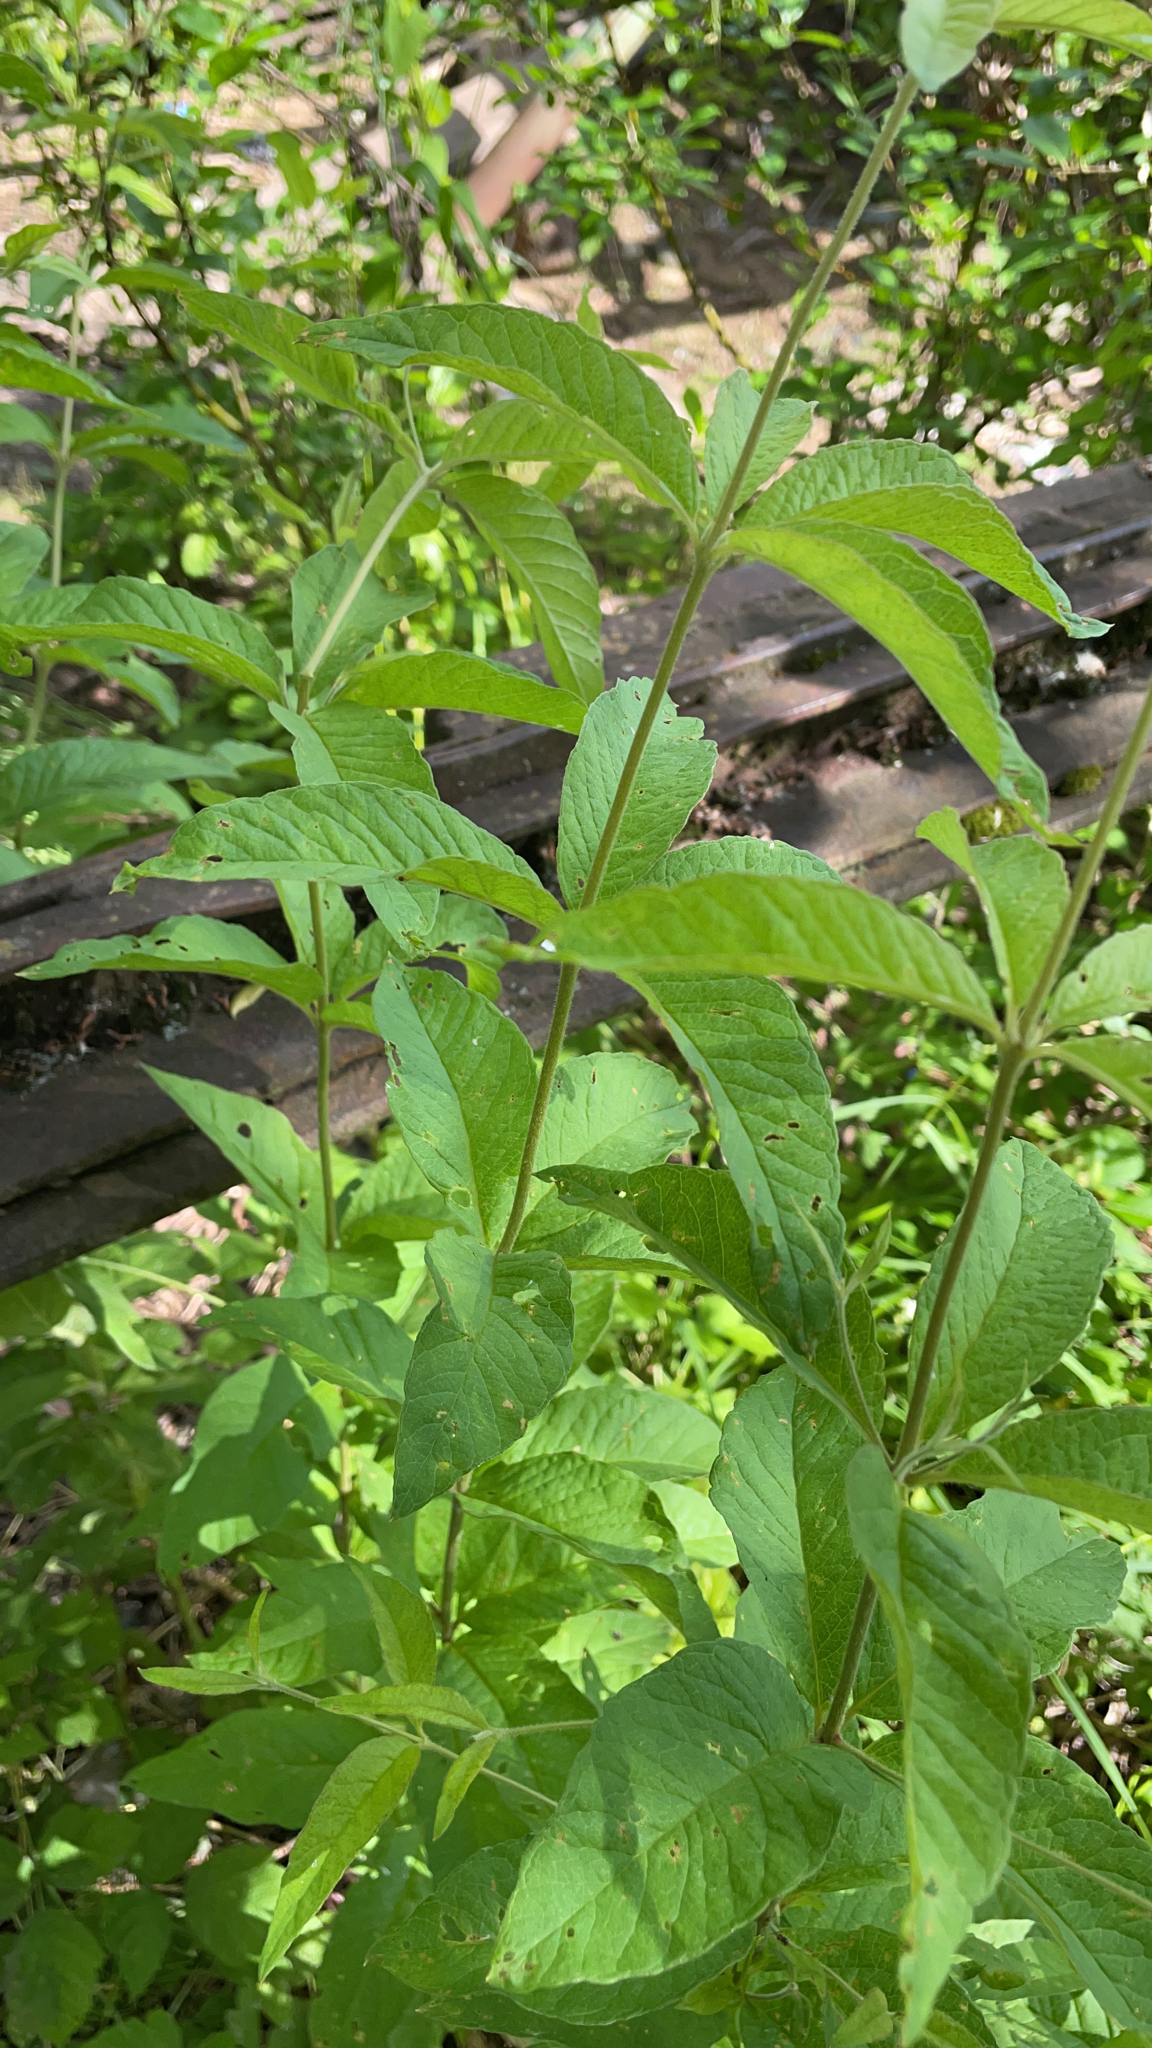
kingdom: Plantae
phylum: Tracheophyta
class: Magnoliopsida
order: Ericales
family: Primulaceae
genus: Lysimachia
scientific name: Lysimachia vulgaris
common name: Yellow loosestrife
